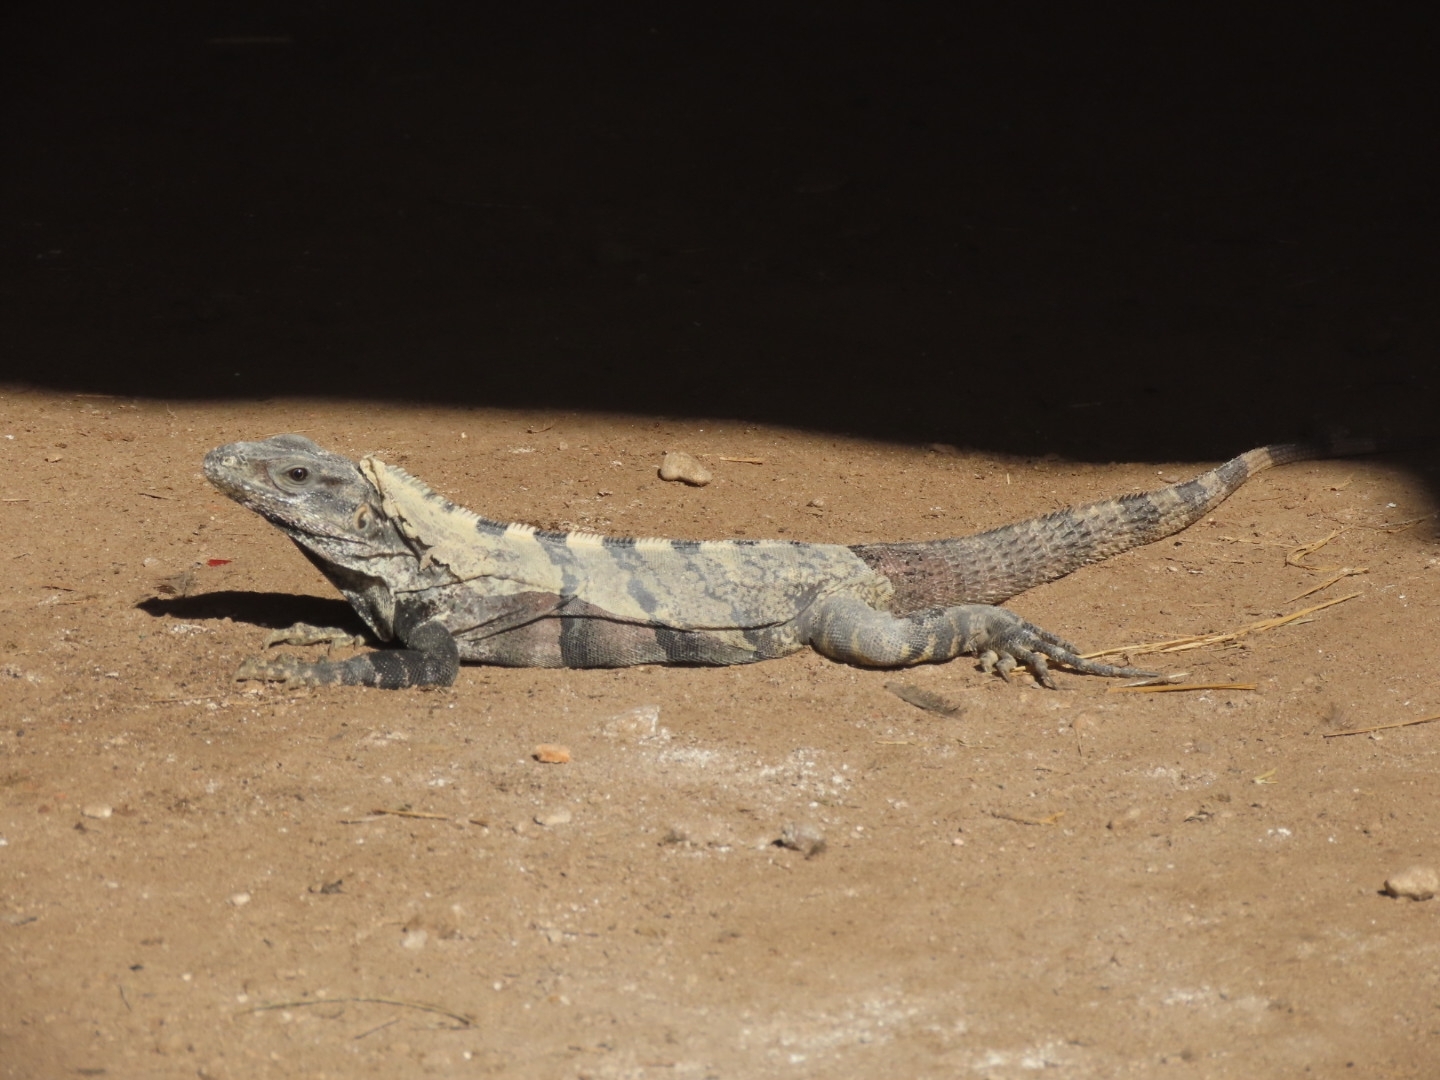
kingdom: Animalia
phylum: Chordata
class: Squamata
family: Iguanidae
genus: Ctenosaura
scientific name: Ctenosaura similis
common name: Black spiny-tailed iguana
